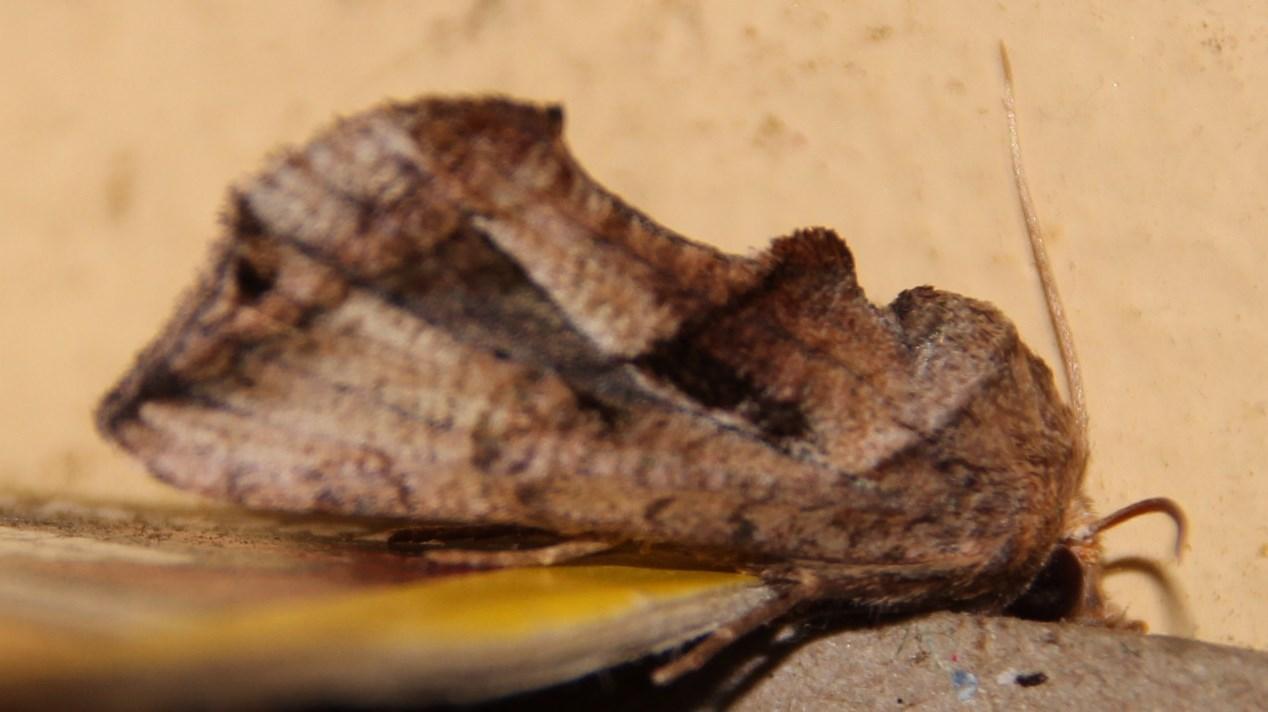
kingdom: Animalia
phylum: Arthropoda
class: Insecta
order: Lepidoptera
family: Erebidae
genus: Oraesia
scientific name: Oraesia provocans
